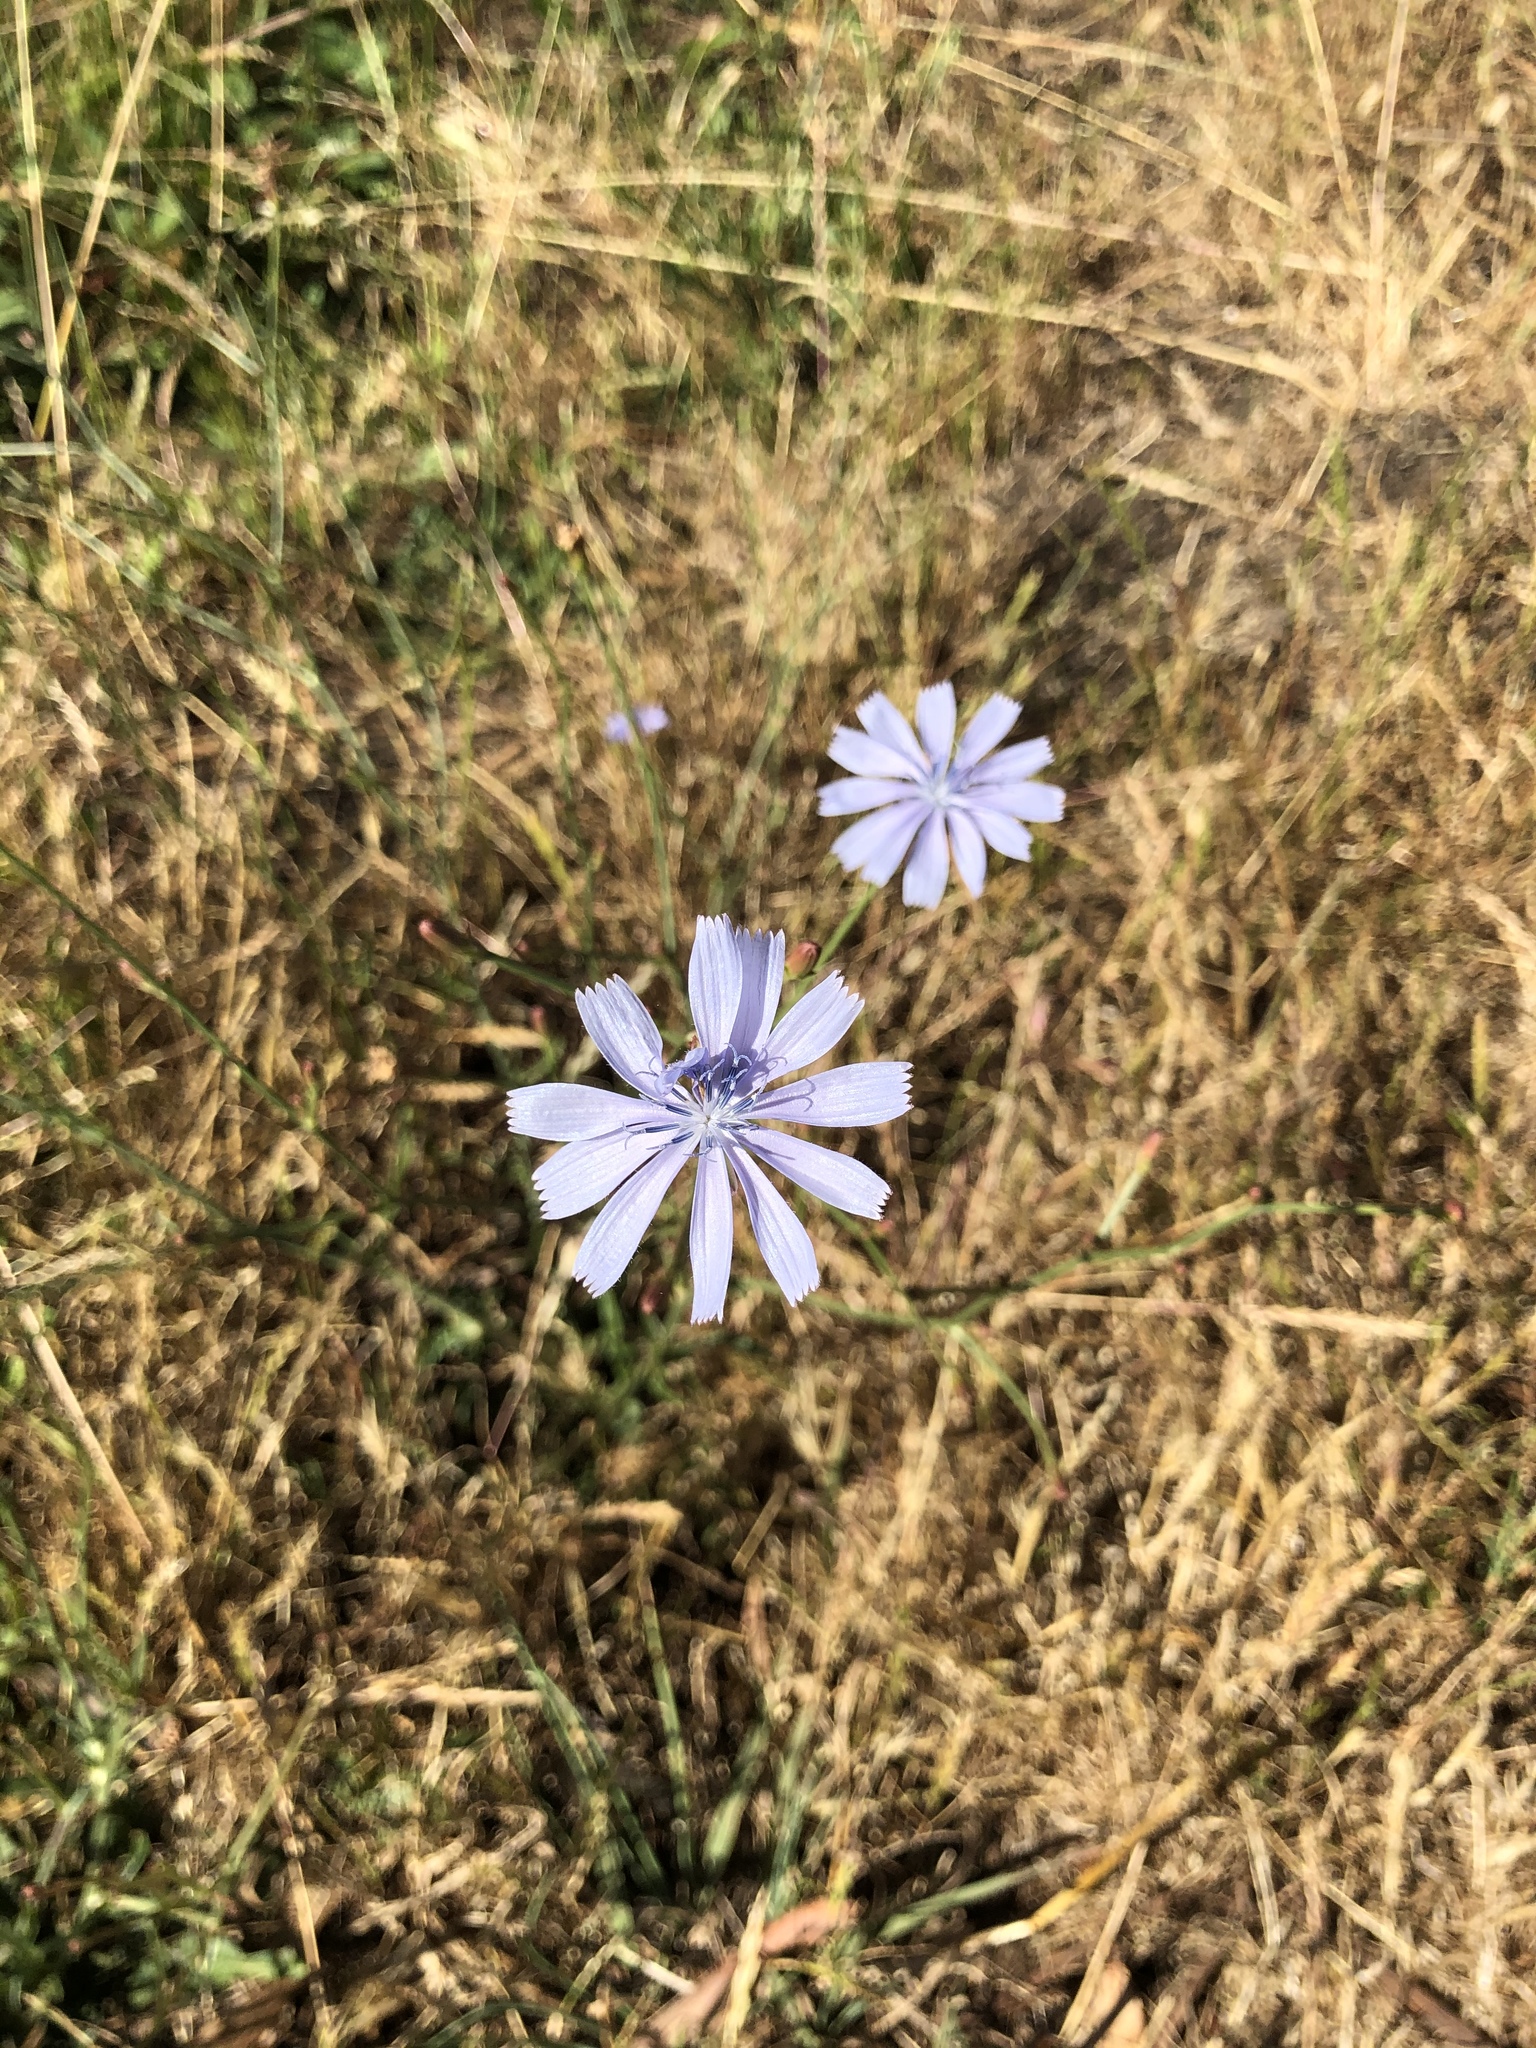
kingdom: Plantae
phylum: Tracheophyta
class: Magnoliopsida
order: Asterales
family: Asteraceae
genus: Cichorium
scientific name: Cichorium intybus
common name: Chicory
